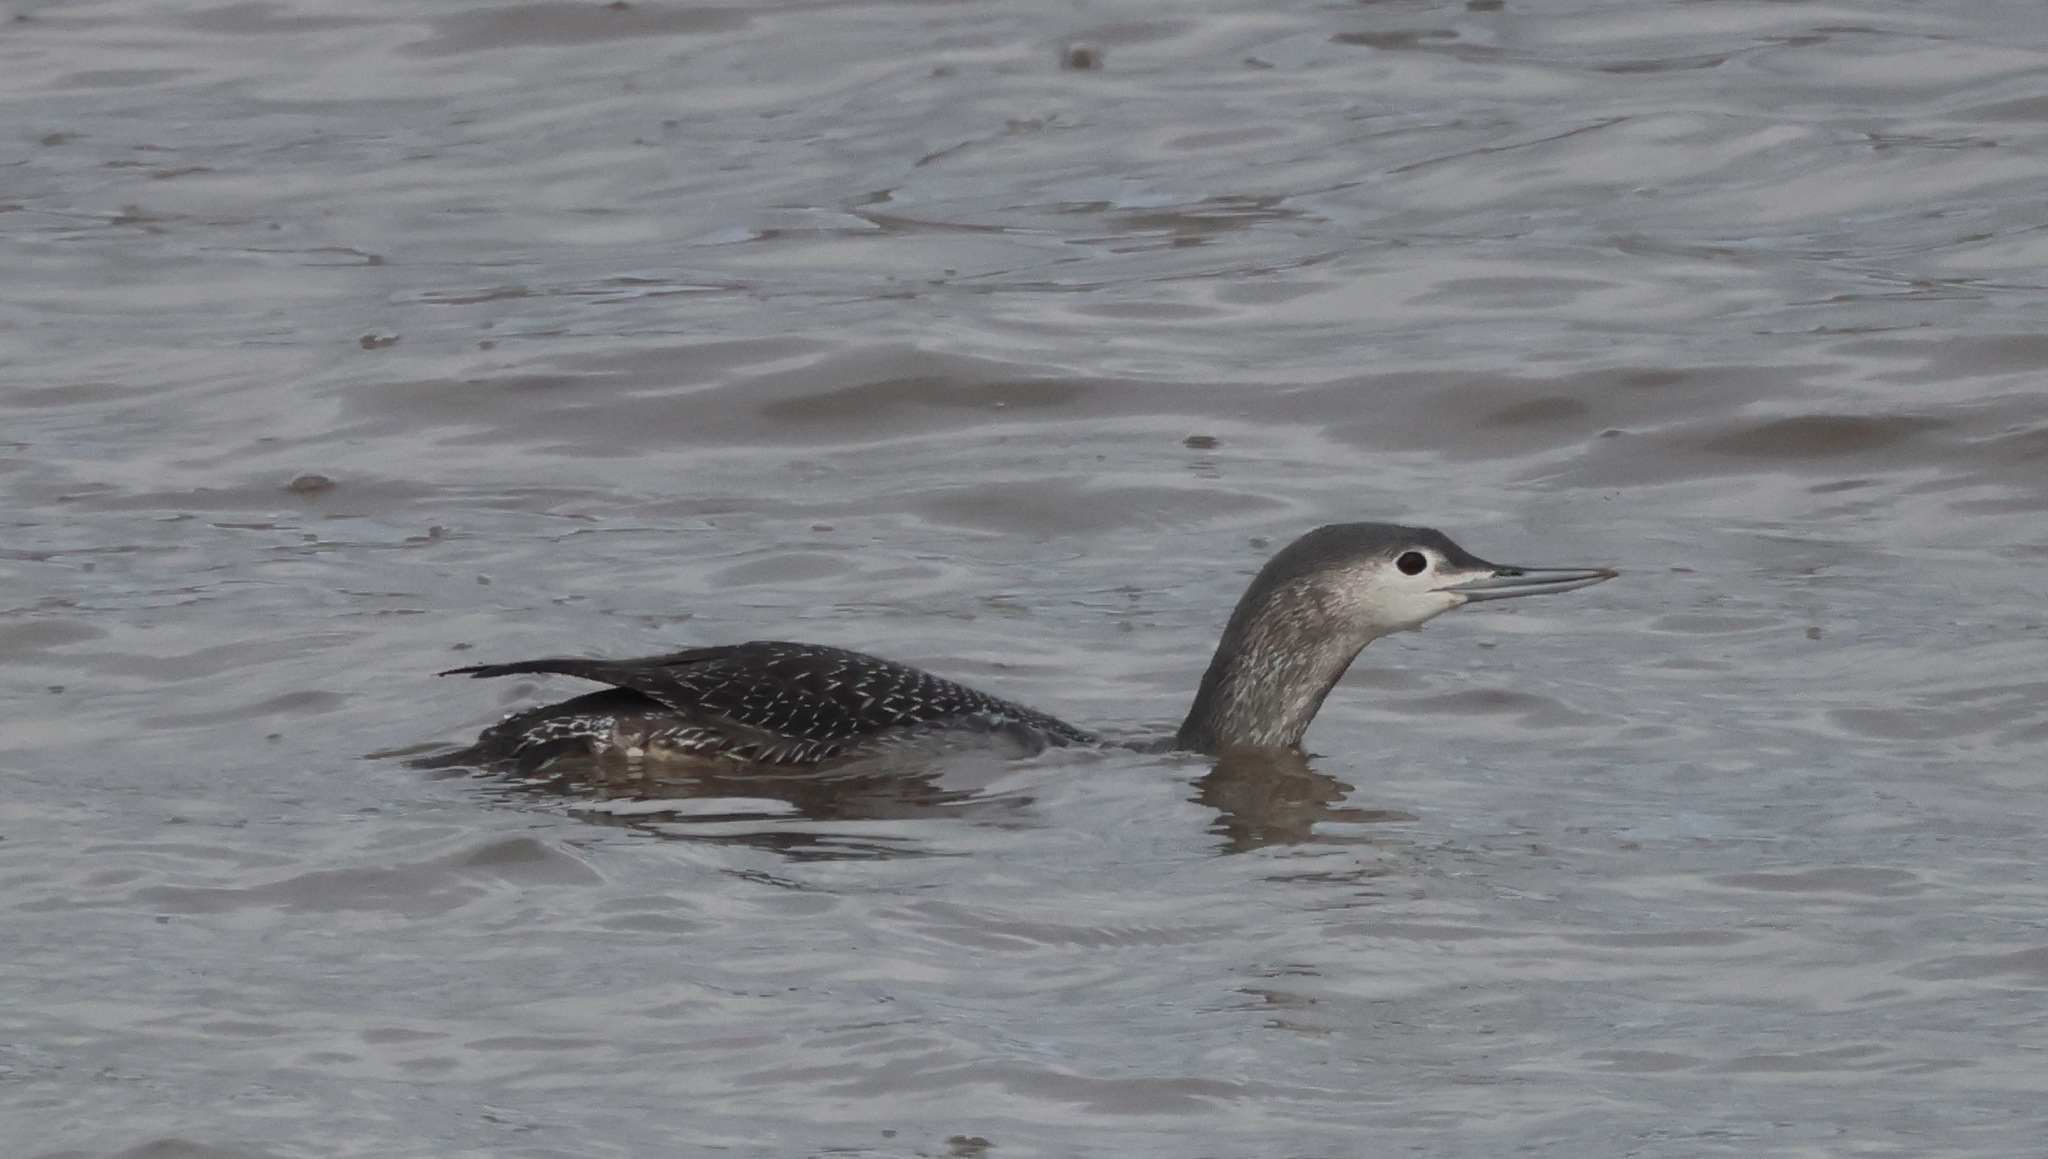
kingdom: Animalia
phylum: Chordata
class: Aves
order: Gaviiformes
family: Gaviidae
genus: Gavia
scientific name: Gavia stellata
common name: Red-throated loon
